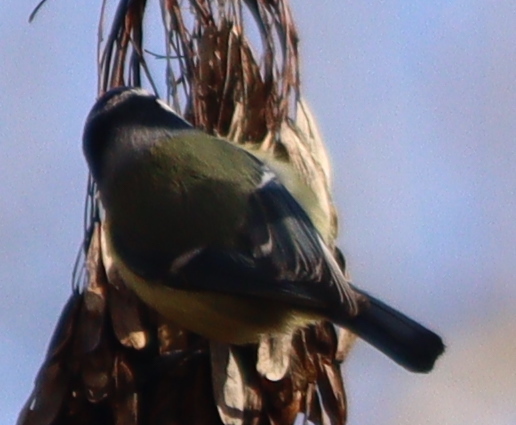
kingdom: Animalia
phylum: Chordata
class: Aves
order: Passeriformes
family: Paridae
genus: Cyanistes
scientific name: Cyanistes caeruleus
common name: Eurasian blue tit
